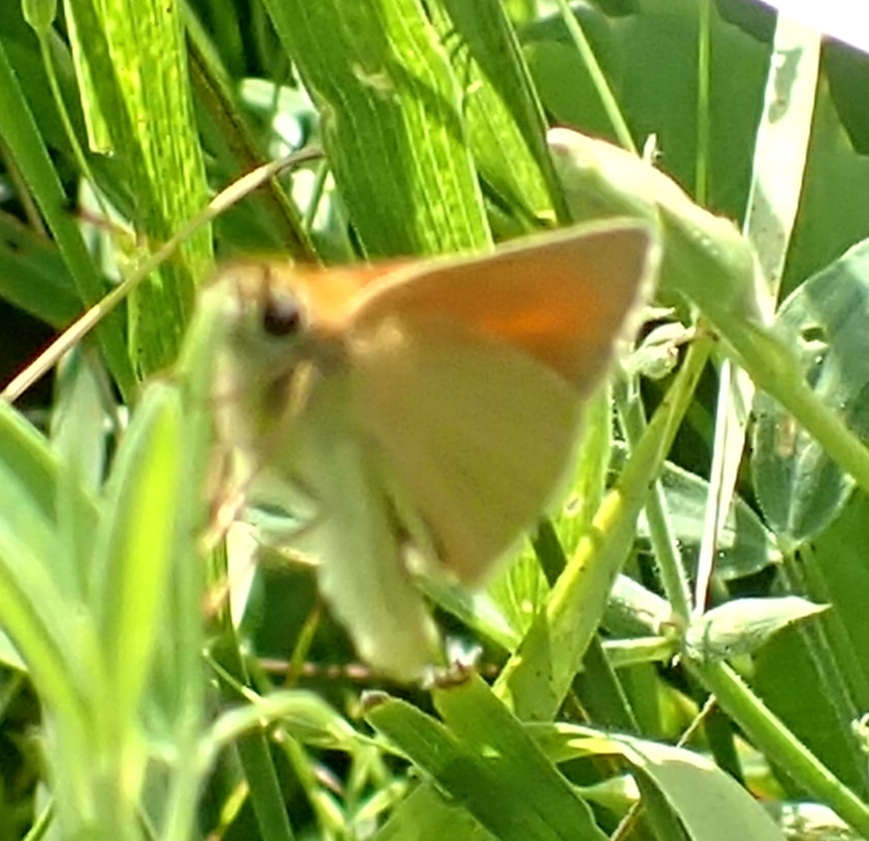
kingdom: Animalia
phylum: Arthropoda
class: Insecta
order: Lepidoptera
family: Hesperiidae
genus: Thymelicus
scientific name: Thymelicus lineola
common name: Essex skipper
